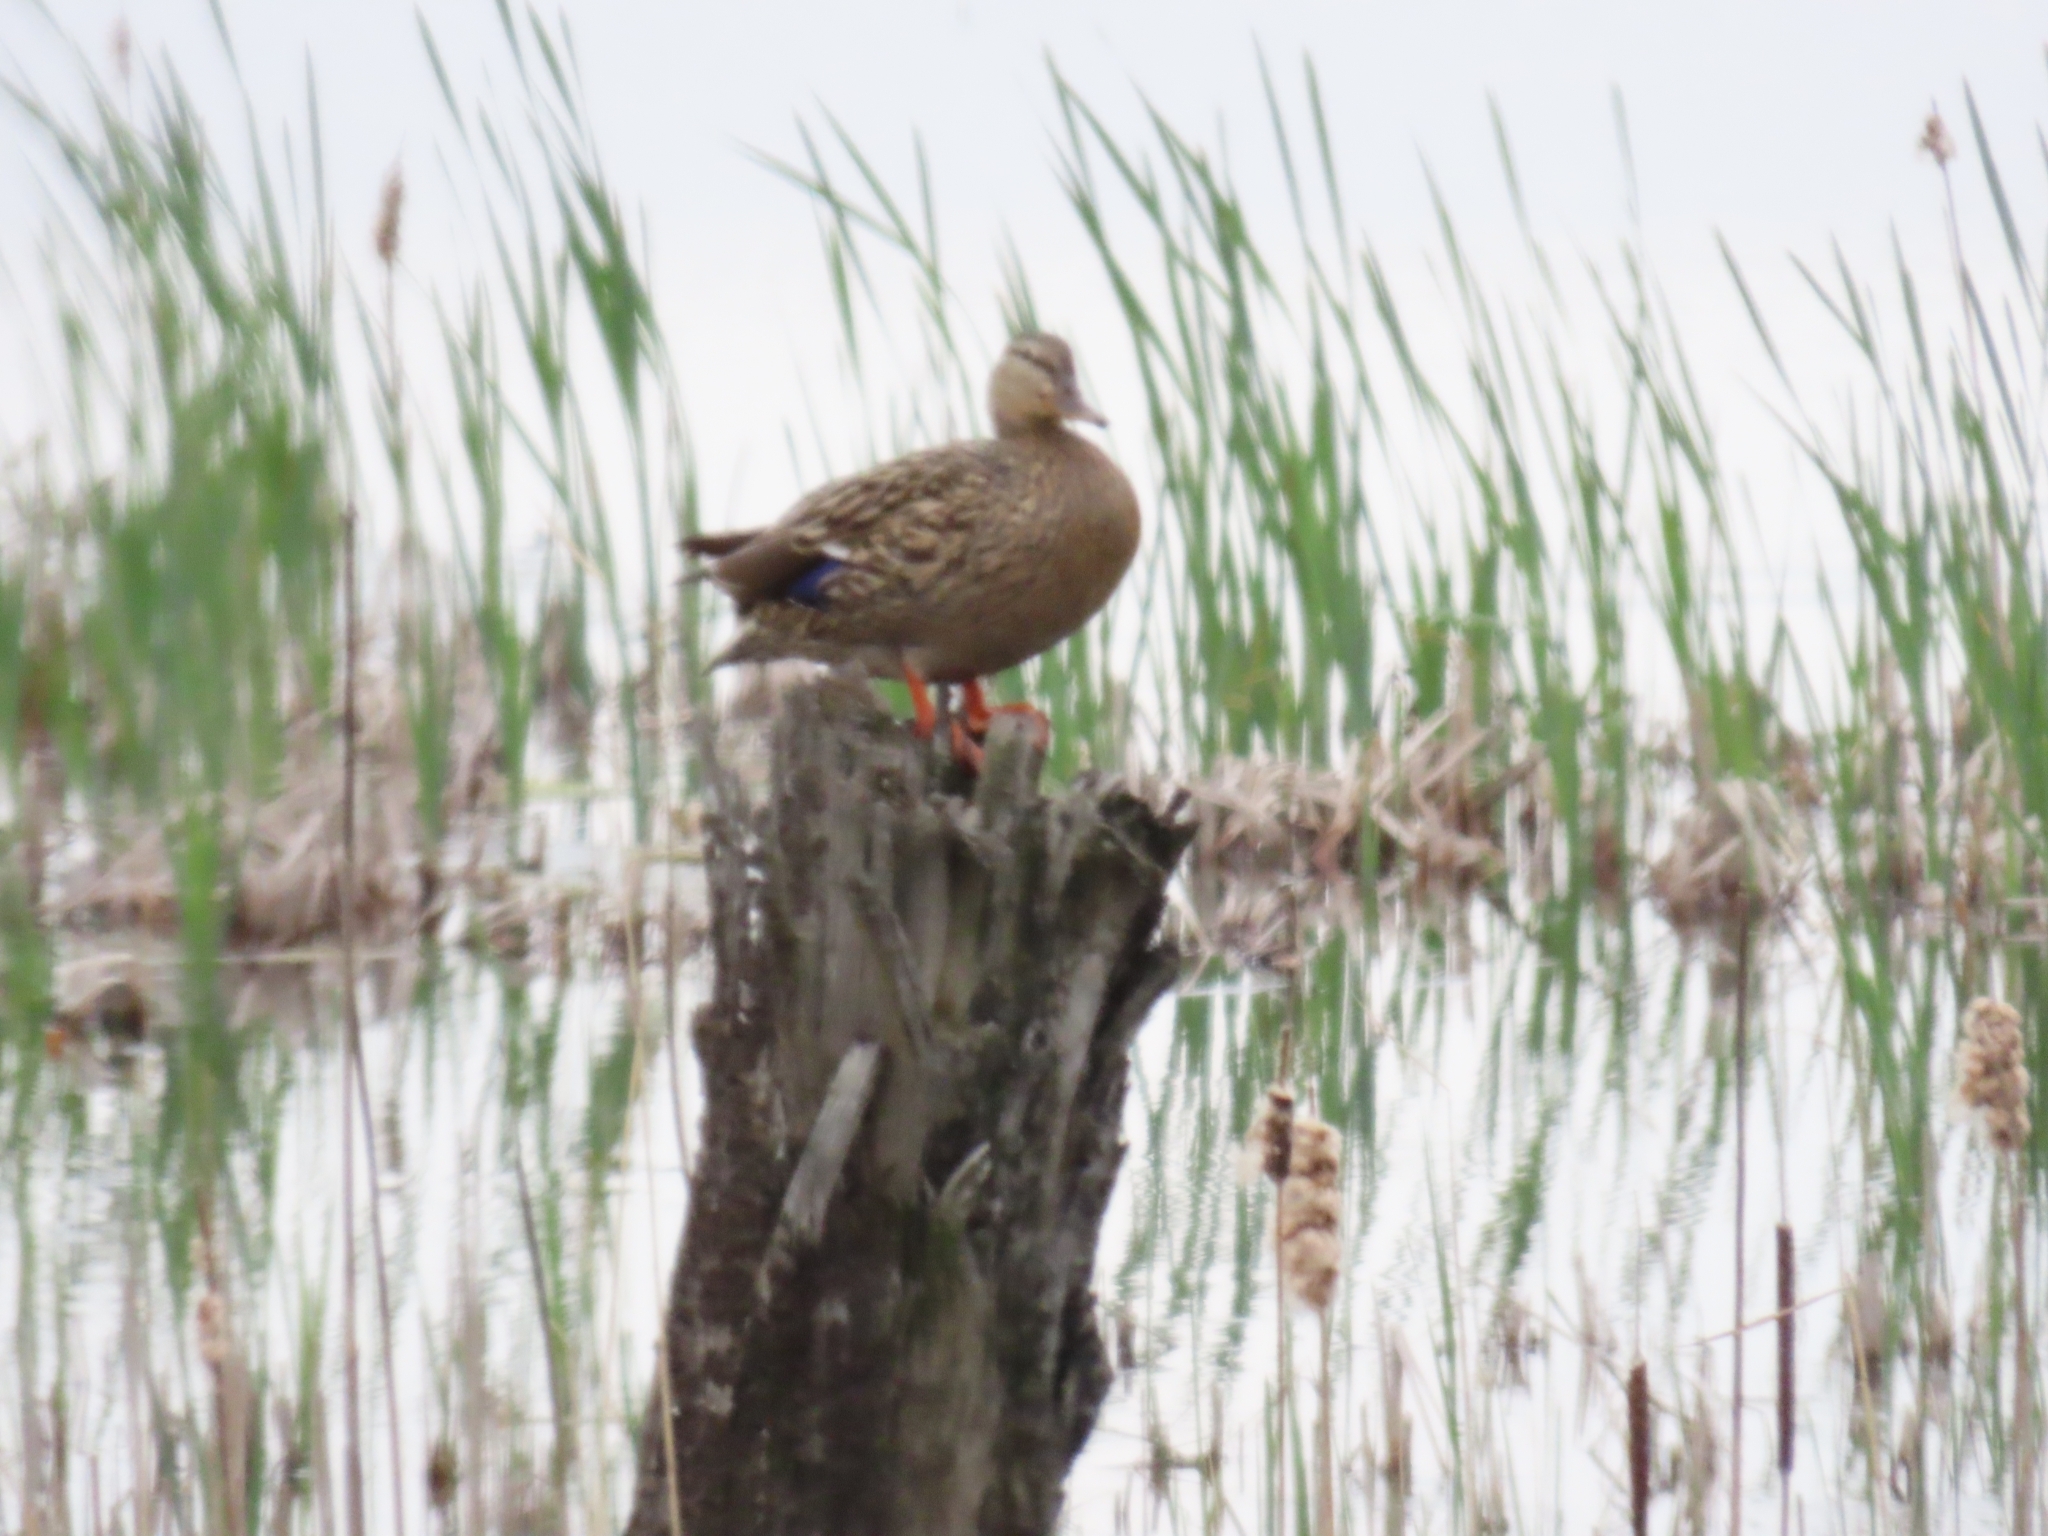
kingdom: Animalia
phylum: Chordata
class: Aves
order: Anseriformes
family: Anatidae
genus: Anas
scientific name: Anas platyrhynchos
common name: Mallard
